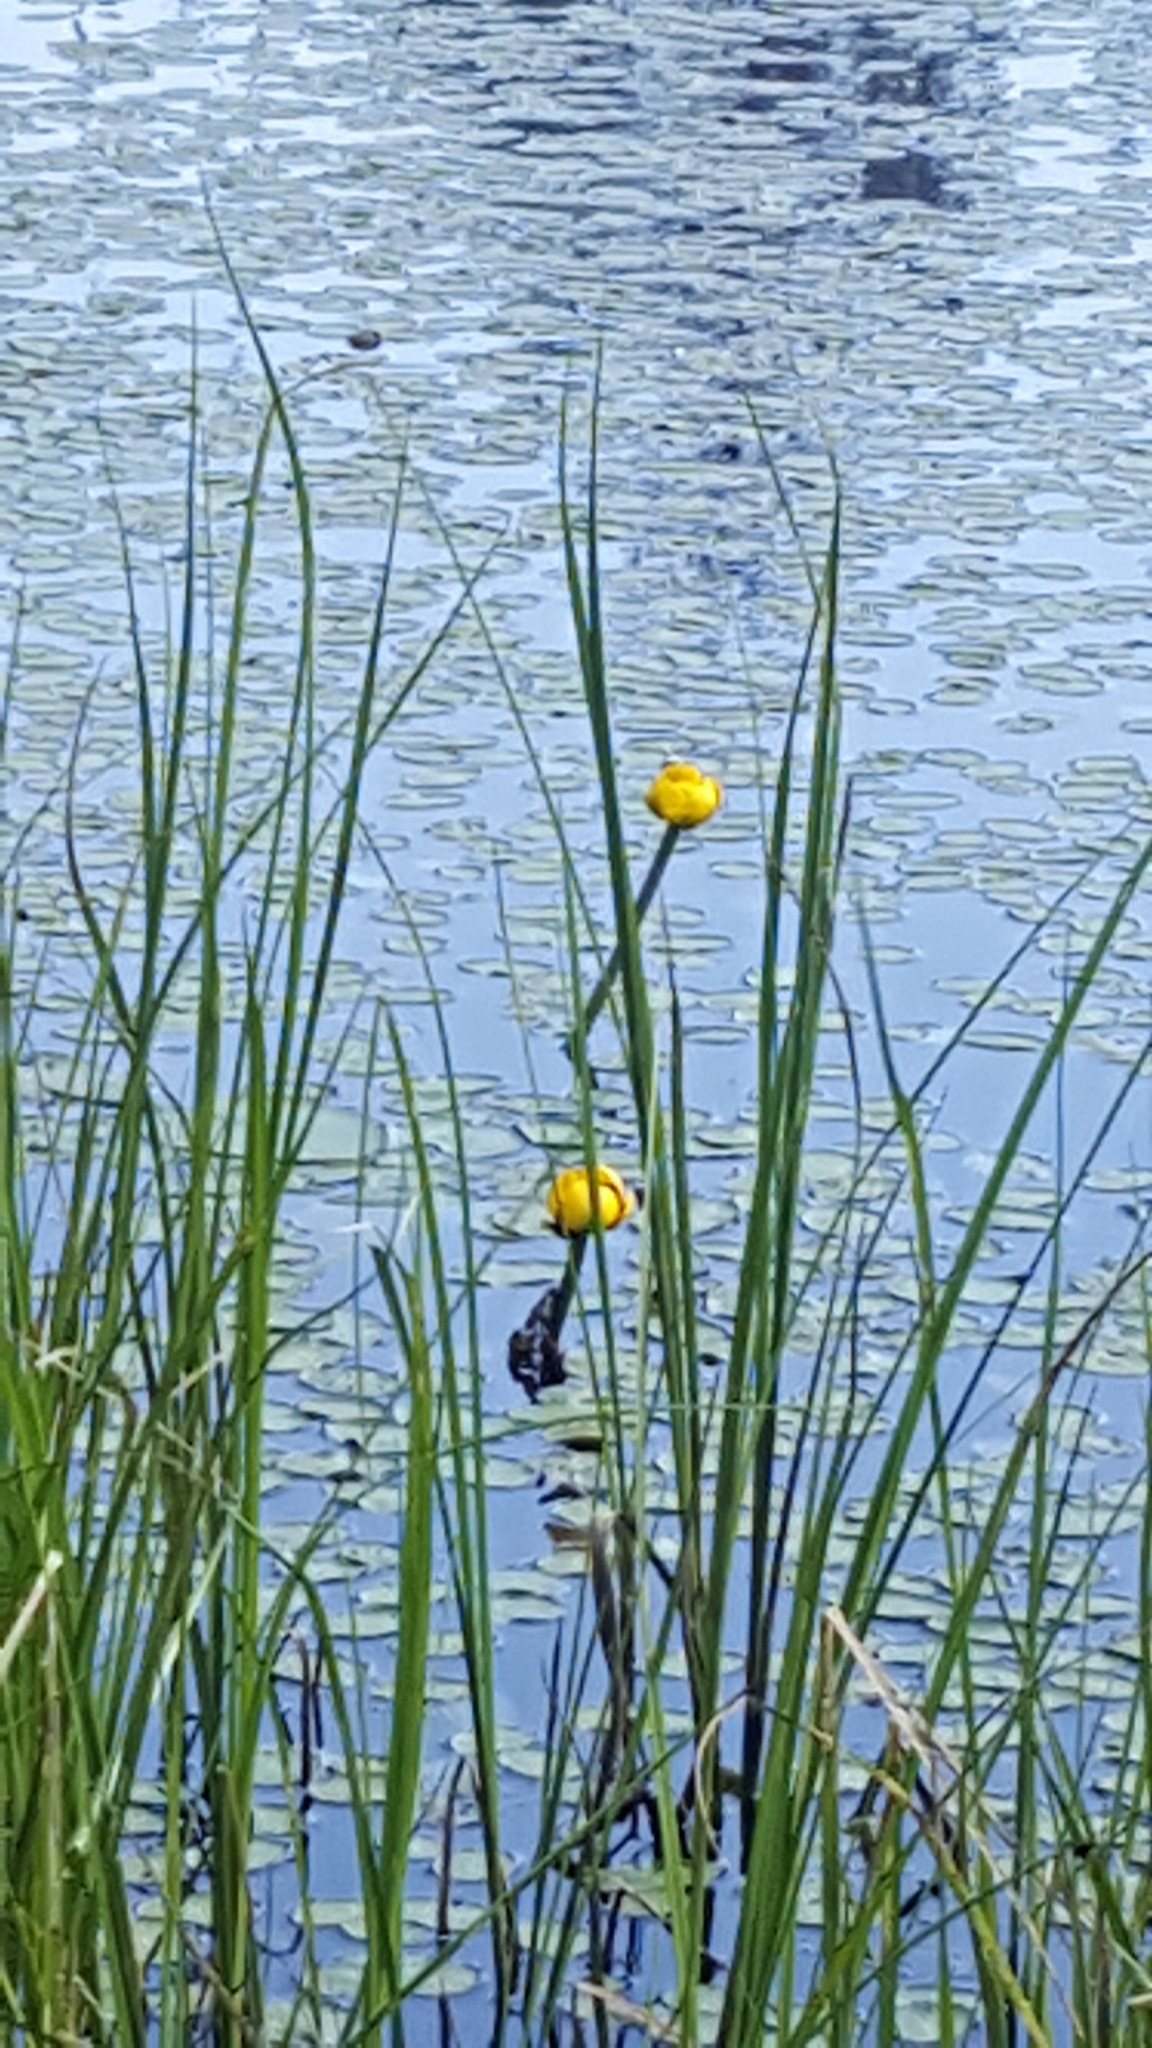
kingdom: Plantae
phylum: Tracheophyta
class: Magnoliopsida
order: Nymphaeales
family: Nymphaeaceae
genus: Nuphar
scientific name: Nuphar variegata
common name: Beaver-root
